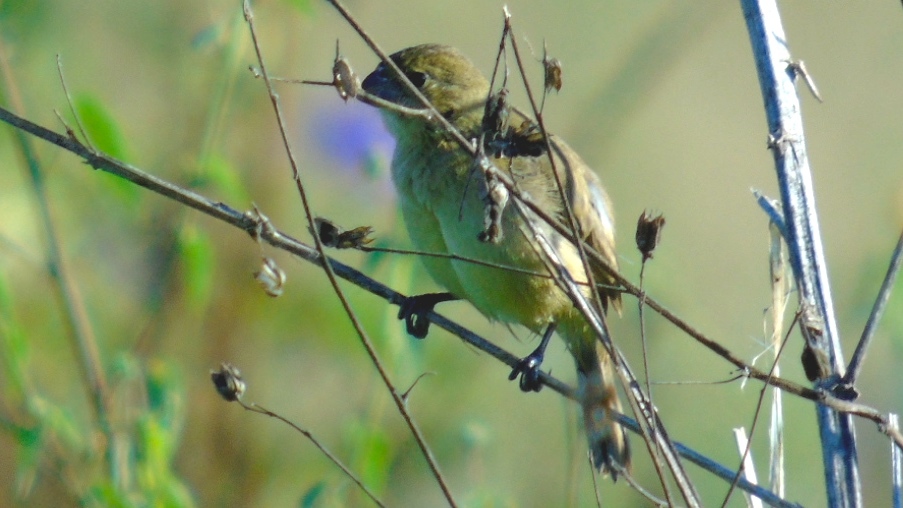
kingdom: Animalia
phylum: Chordata
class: Aves
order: Passeriformes
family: Thraupidae
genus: Sporophila
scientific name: Sporophila torqueola
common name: White-collared seedeater
